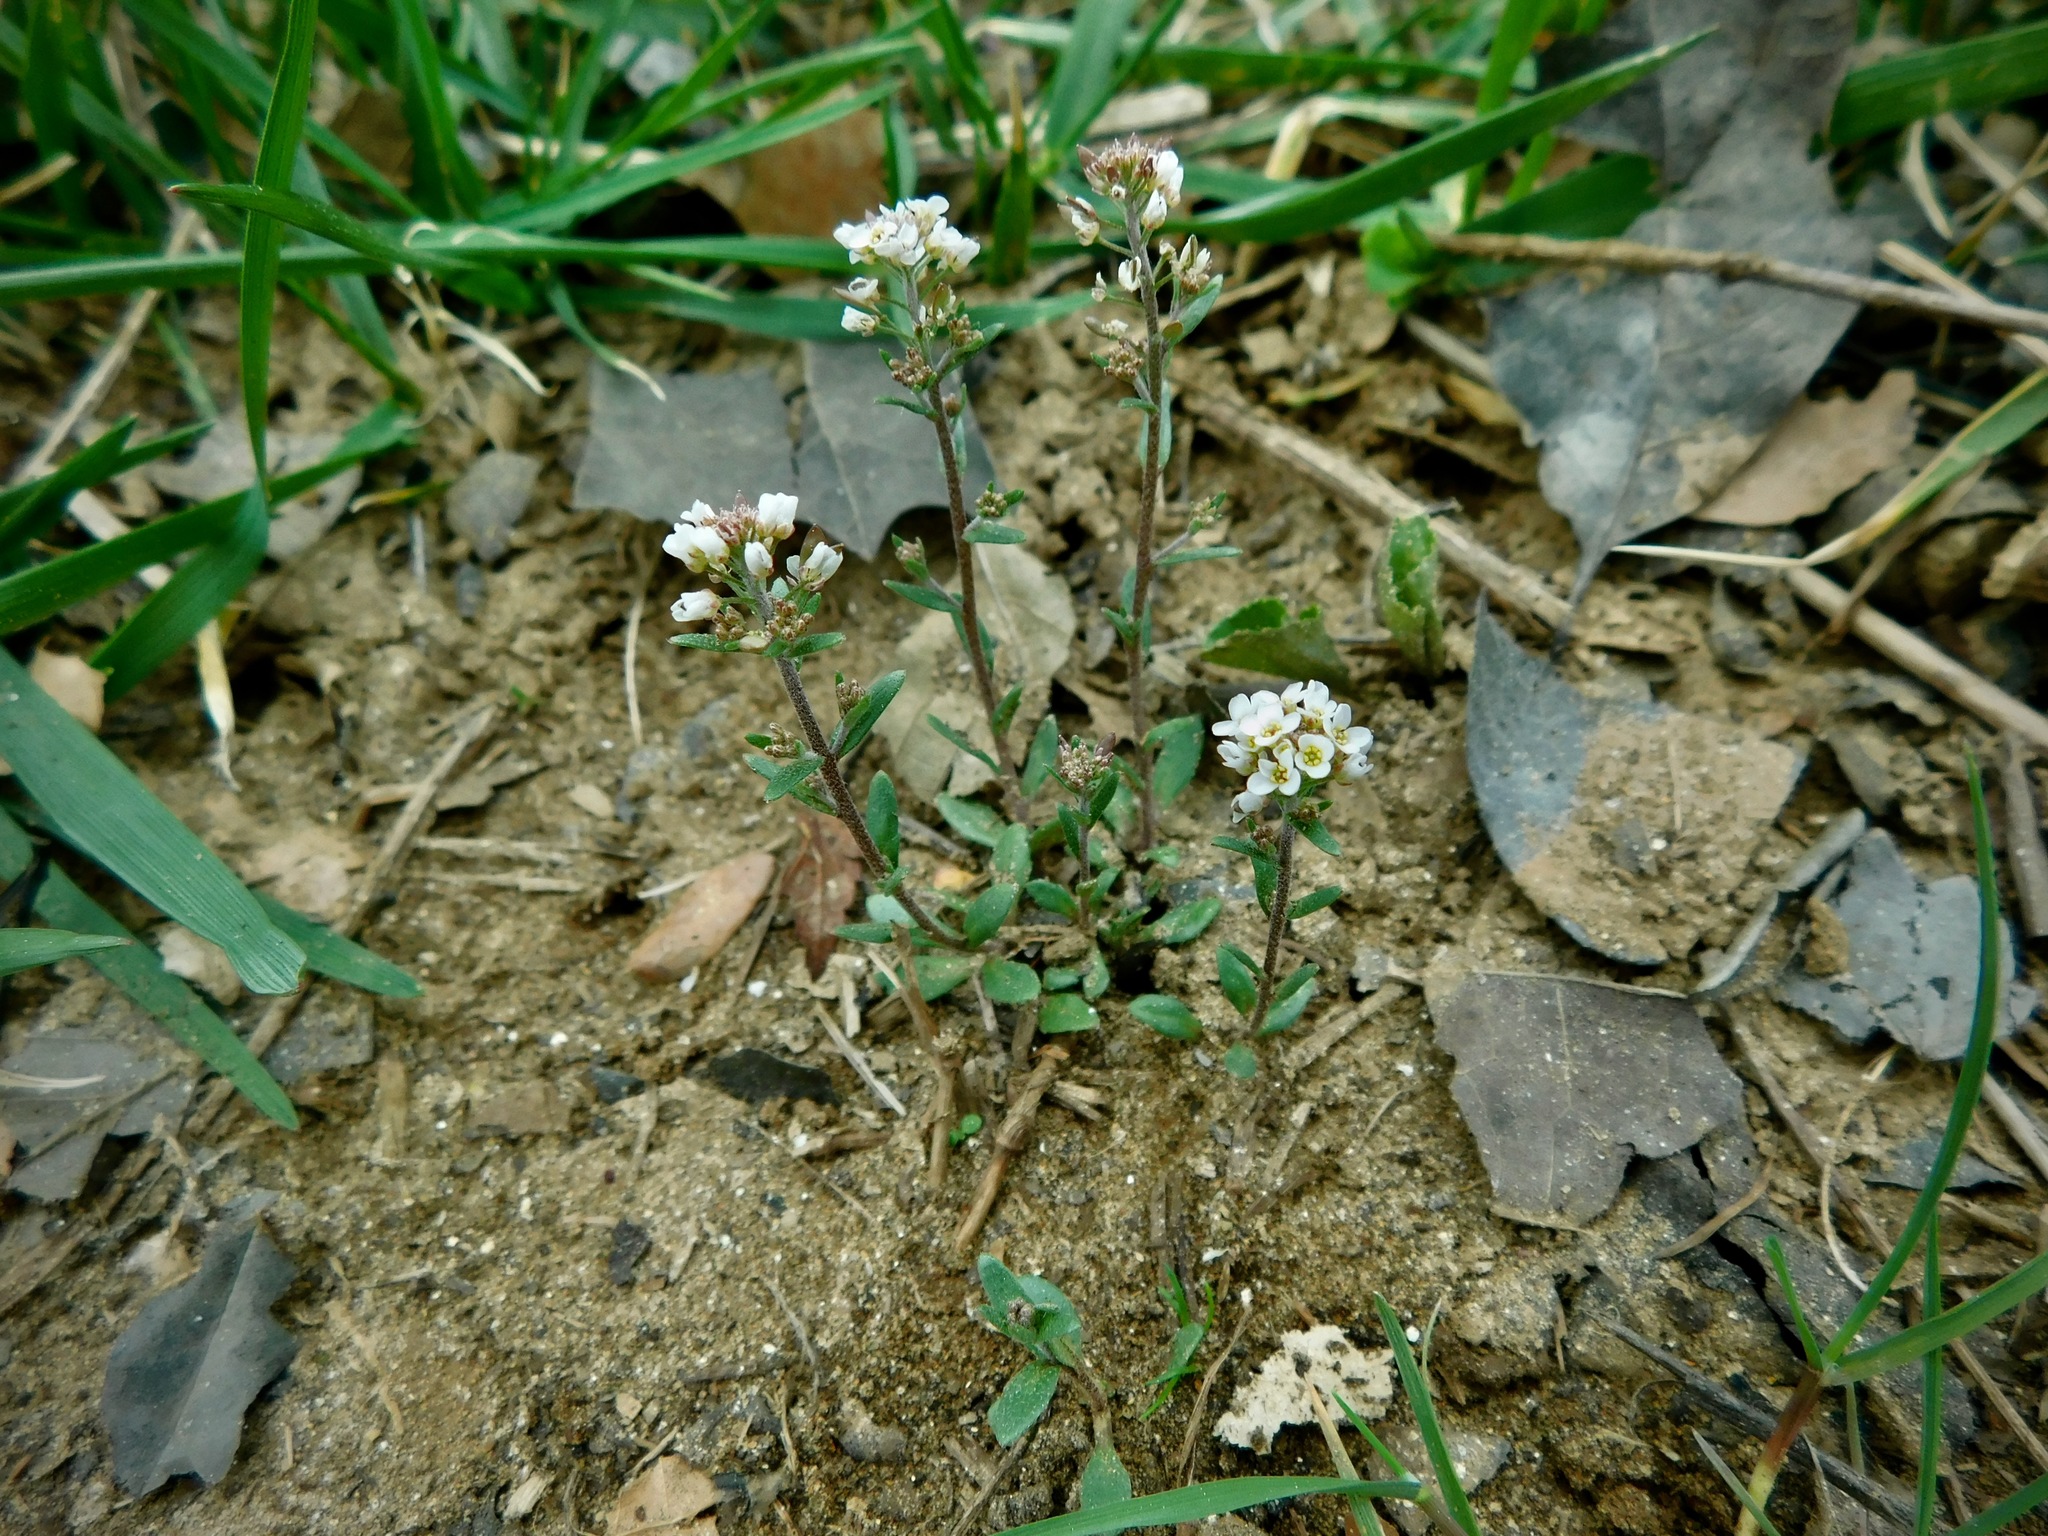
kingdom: Plantae
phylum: Tracheophyta
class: Magnoliopsida
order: Brassicales
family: Brassicaceae
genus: Abdra
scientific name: Abdra brachycarpa
